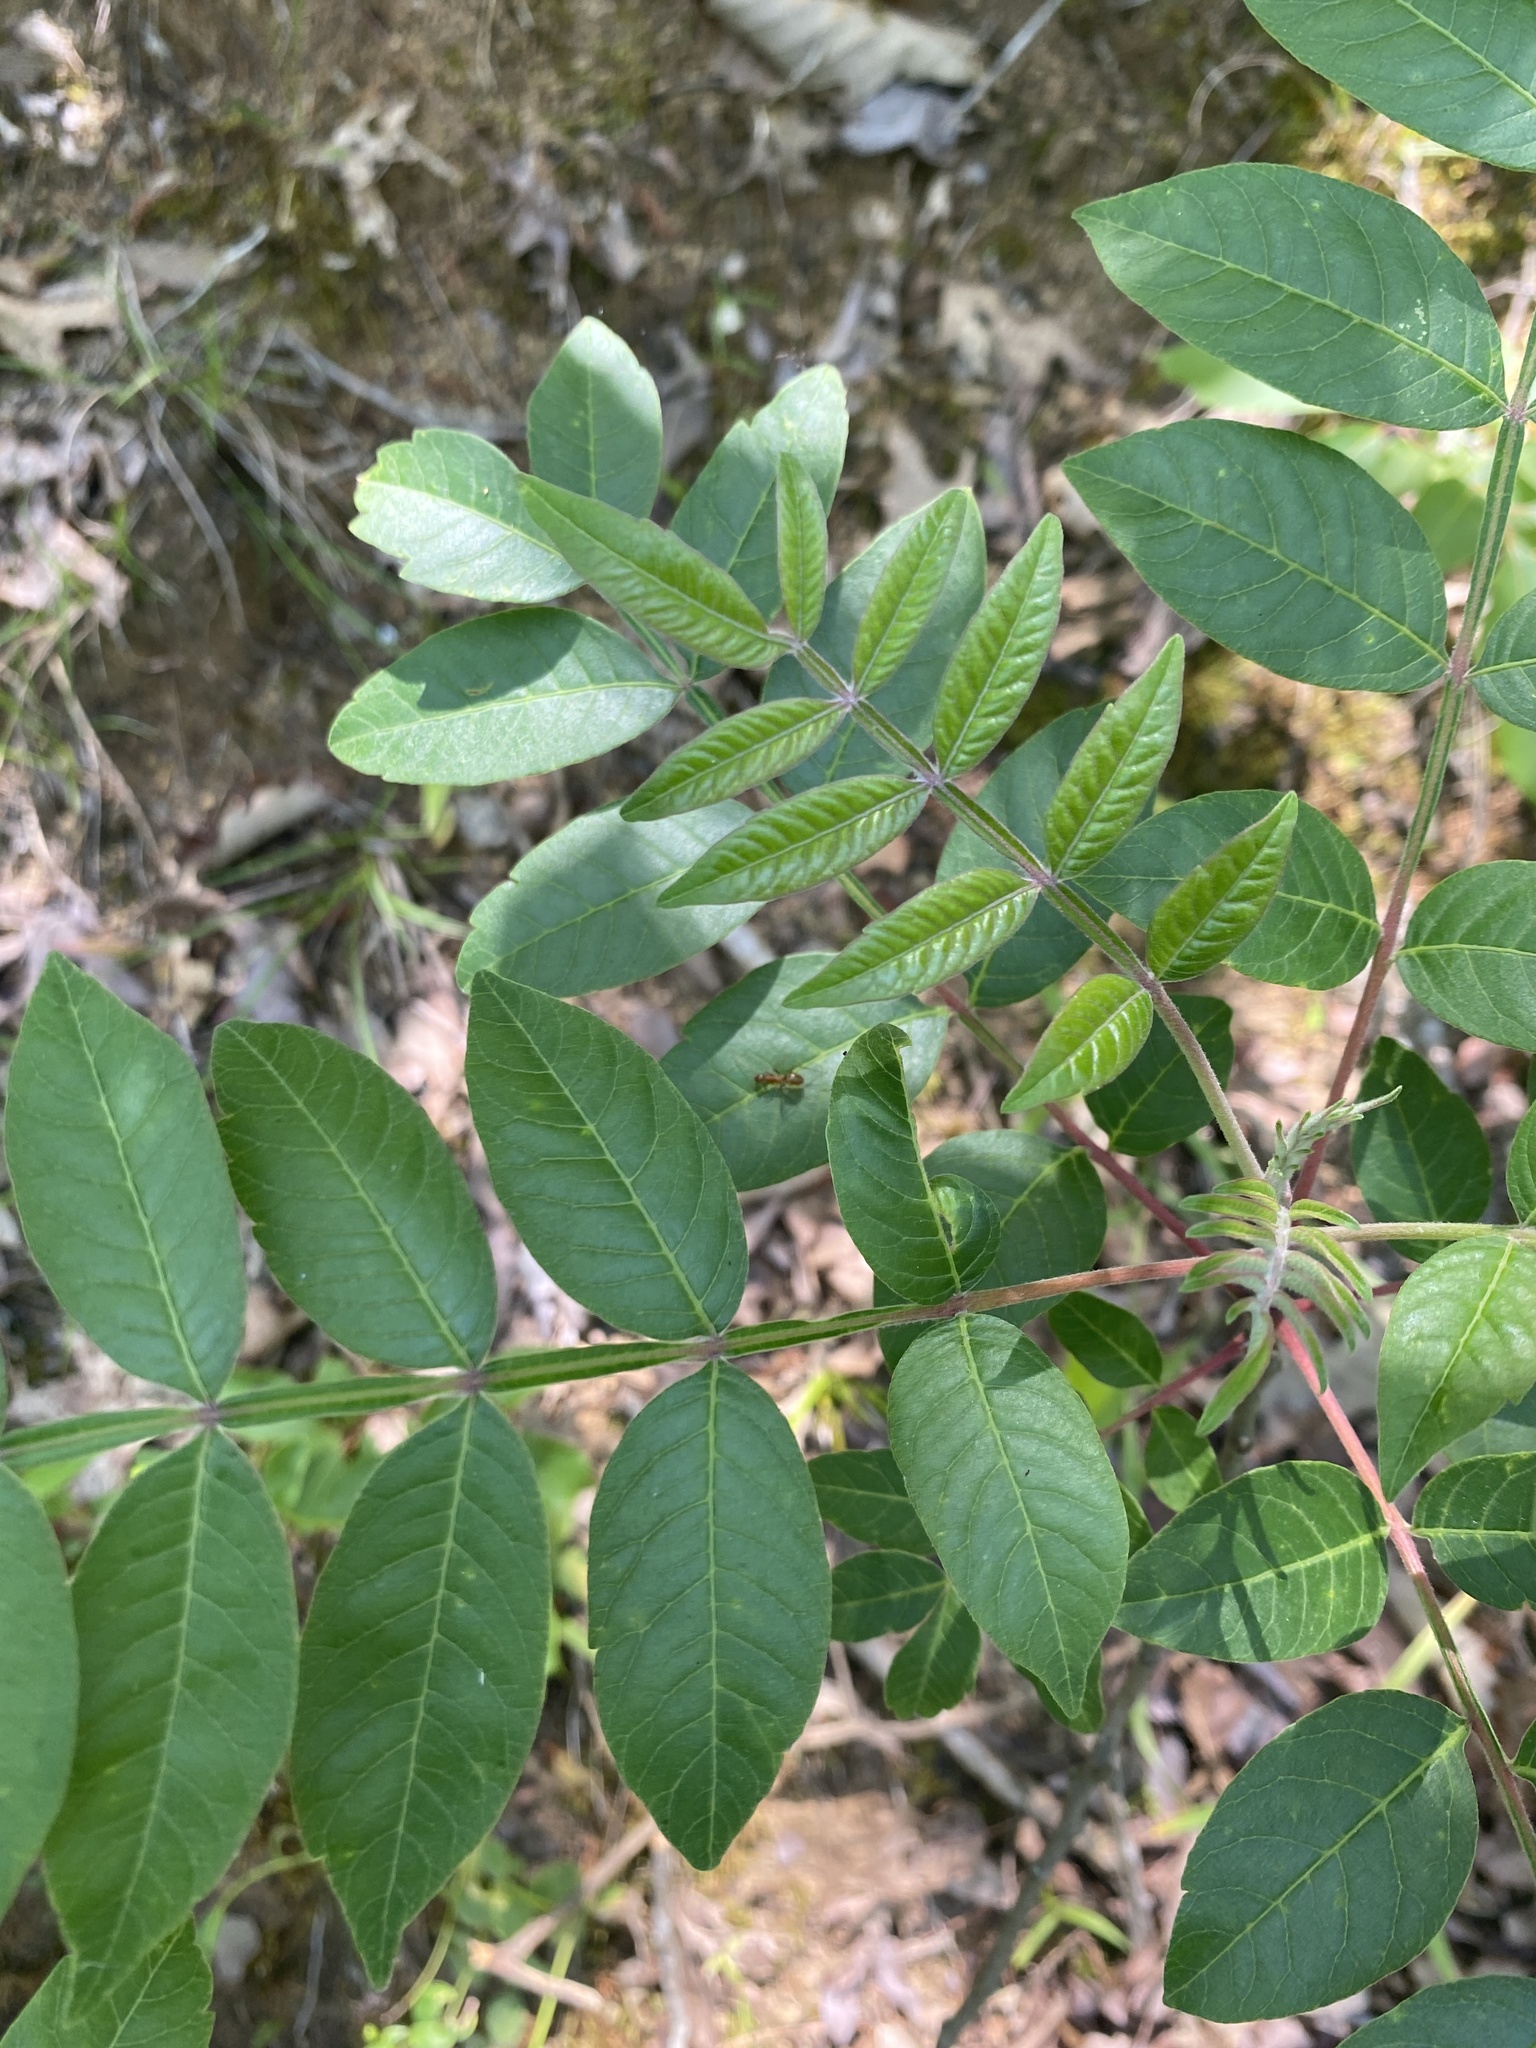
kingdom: Plantae
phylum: Tracheophyta
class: Magnoliopsida
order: Sapindales
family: Anacardiaceae
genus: Rhus
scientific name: Rhus copallina
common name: Shining sumac
